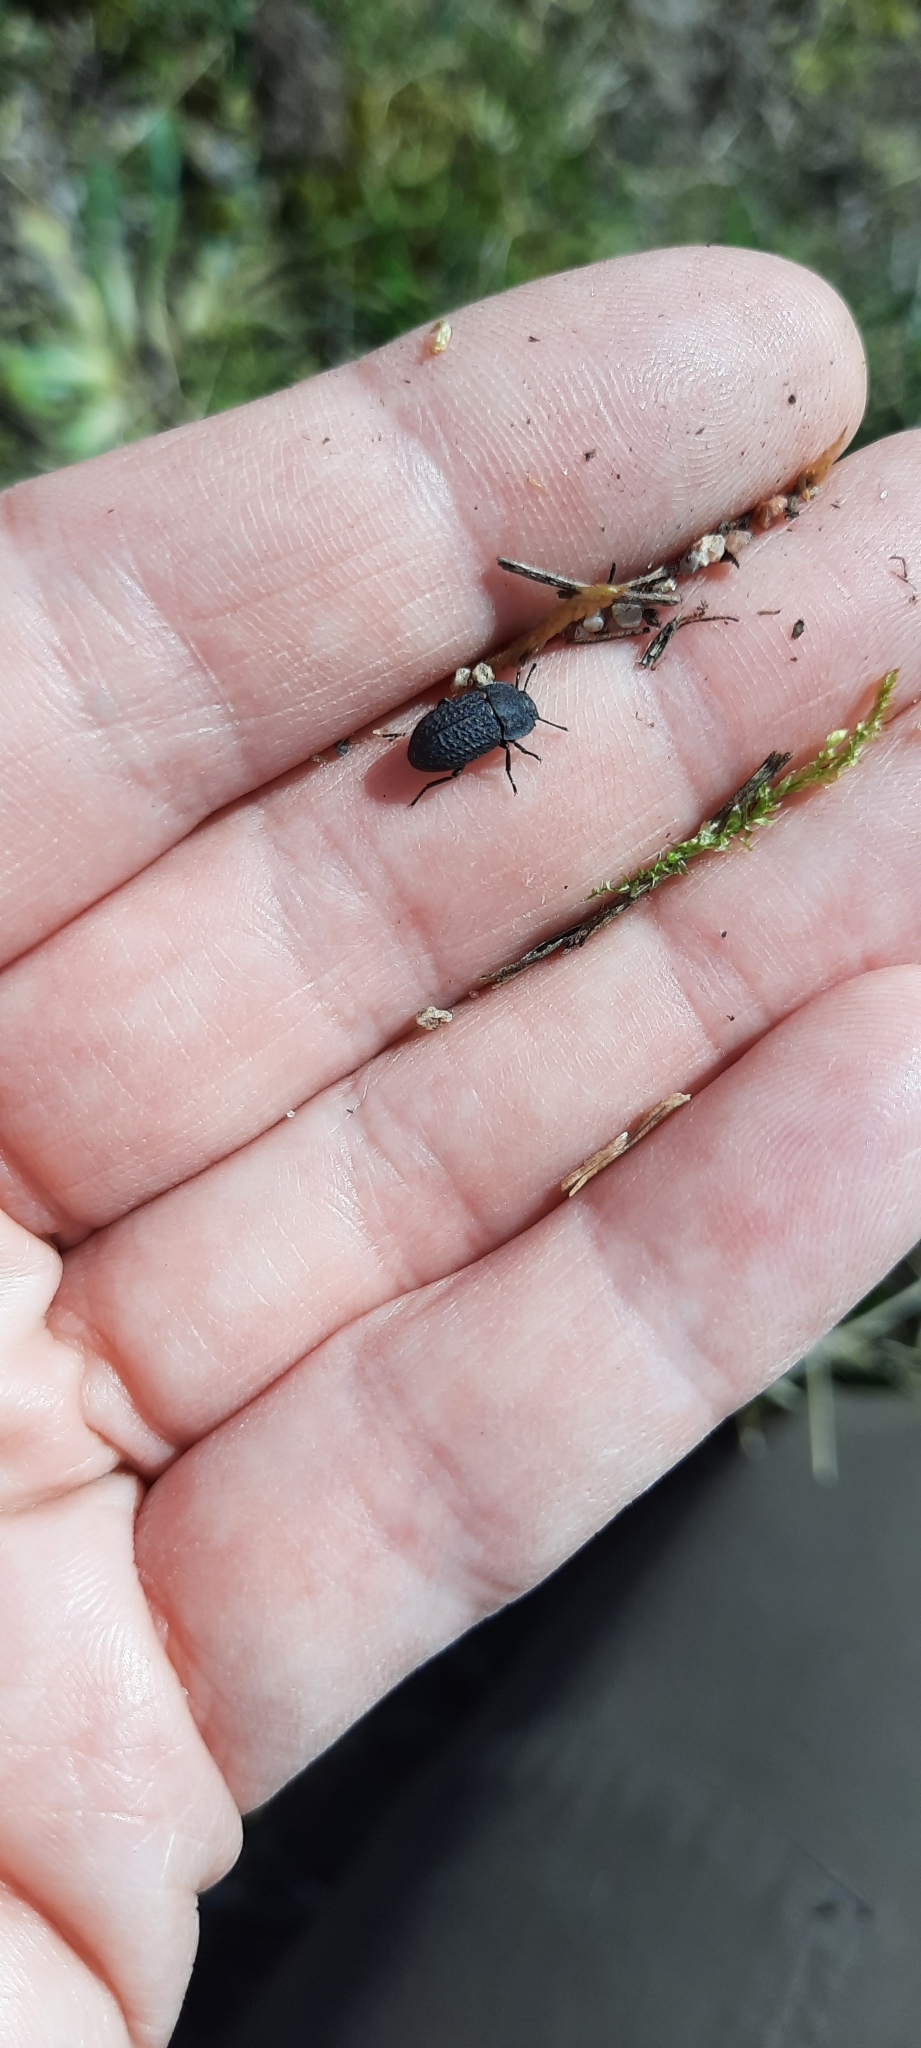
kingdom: Animalia
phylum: Arthropoda
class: Insecta
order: Coleoptera
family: Tenebrionidae
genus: Opatrum
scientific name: Opatrum sabulosum
